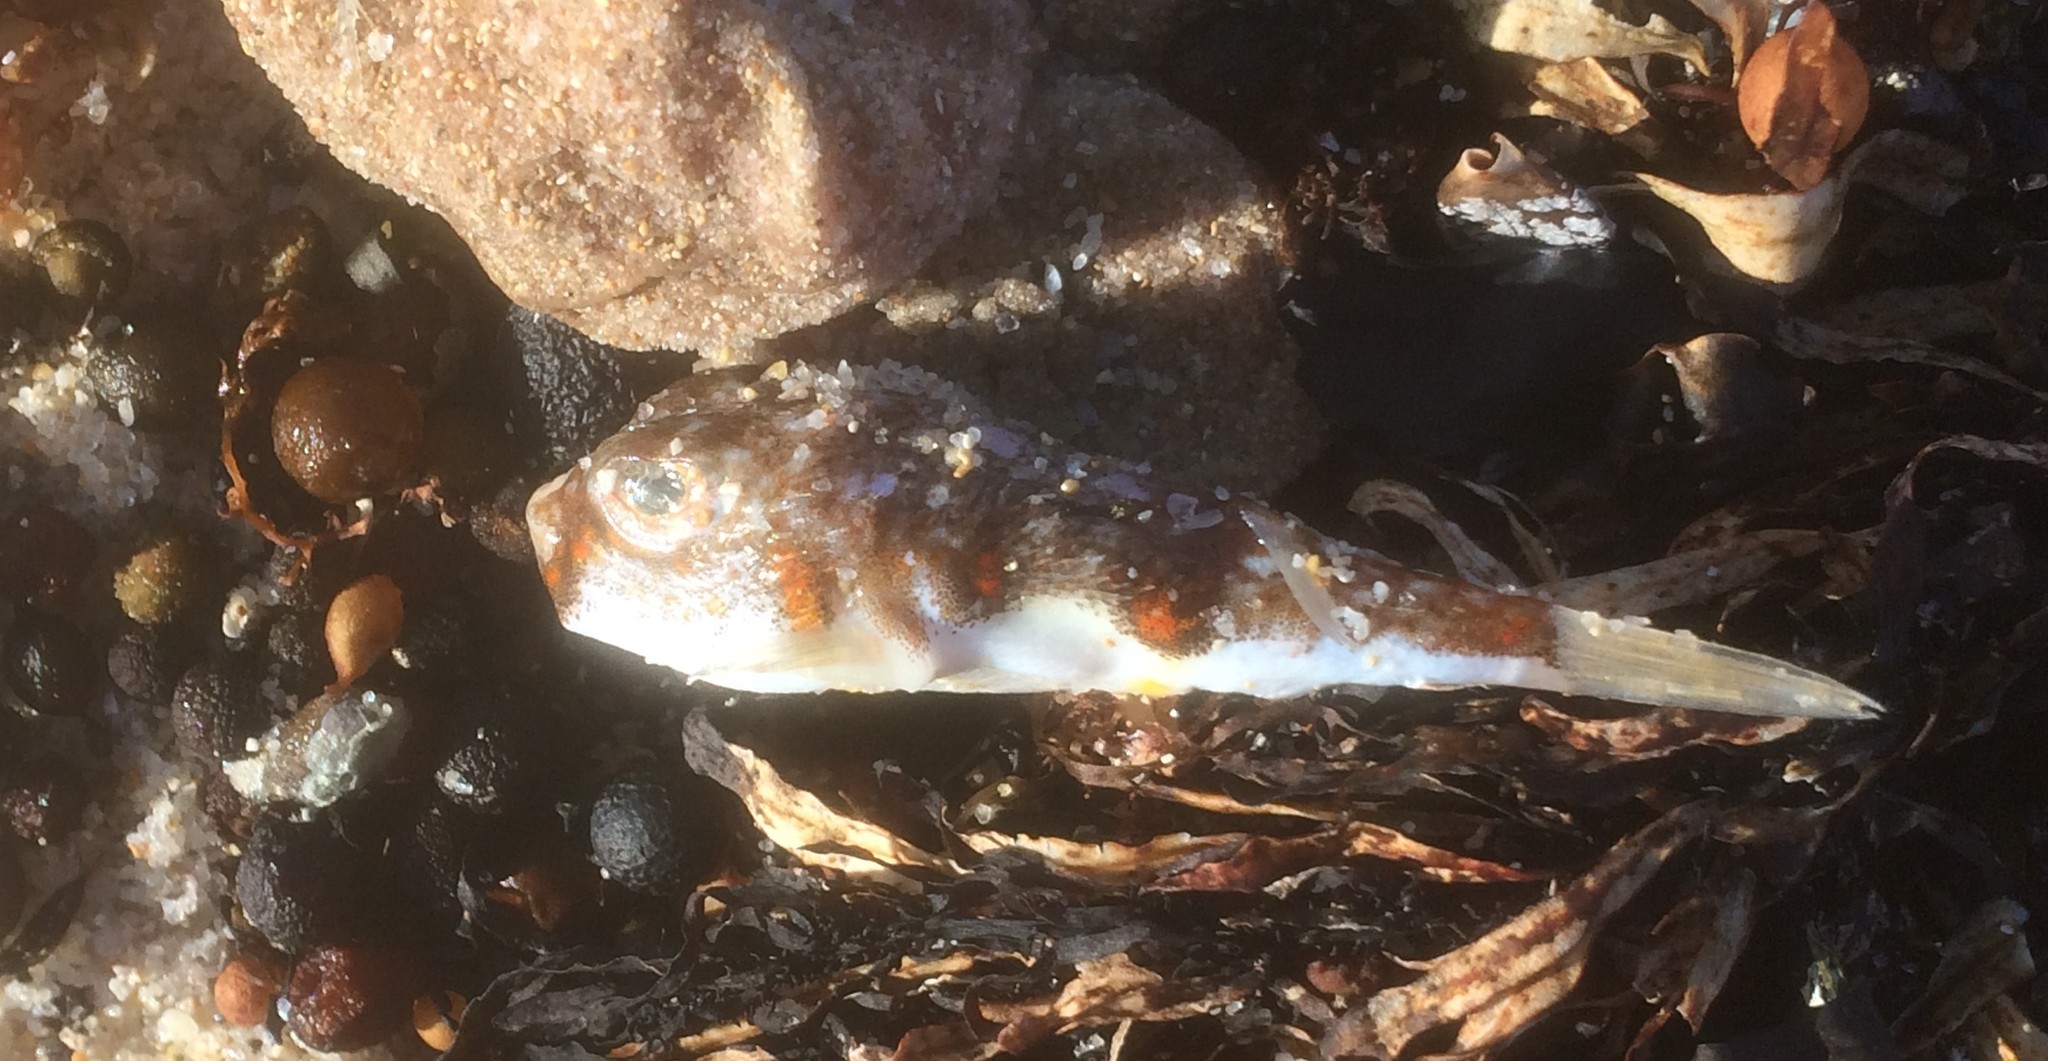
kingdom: Animalia
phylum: Chordata
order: Tetraodontiformes
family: Tetraodontidae
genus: Polyspina
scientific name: Polyspina piosae
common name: Orange-barred pufferfish
